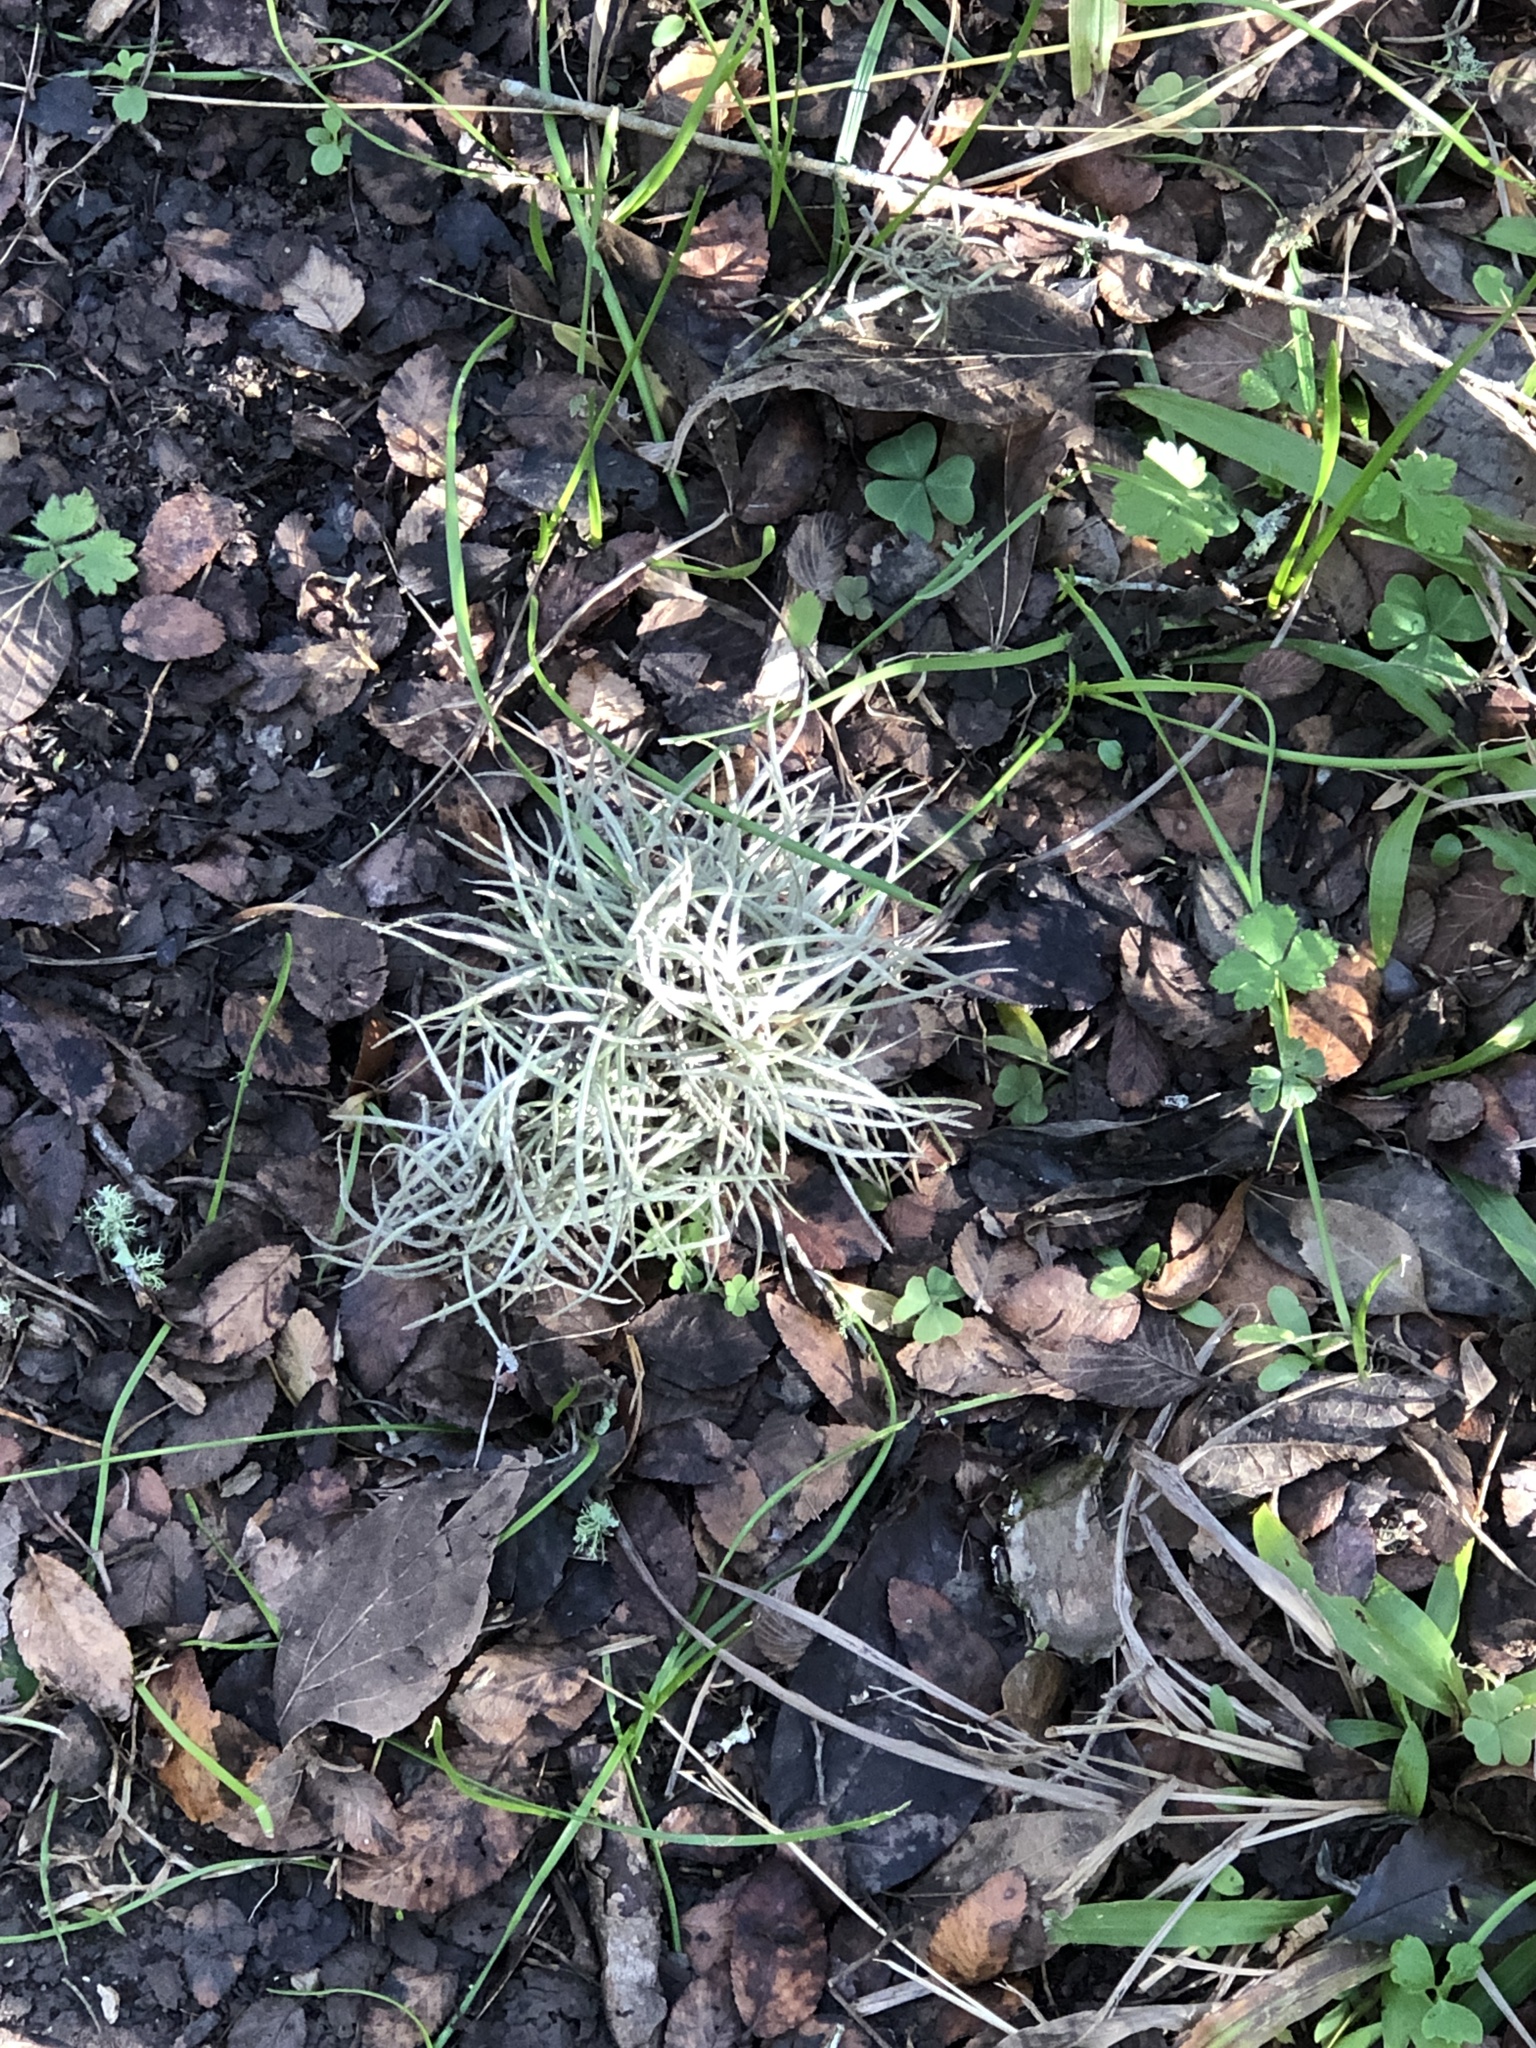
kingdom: Plantae
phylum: Tracheophyta
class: Liliopsida
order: Poales
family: Bromeliaceae
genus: Tillandsia
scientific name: Tillandsia recurvata
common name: Small ballmoss
